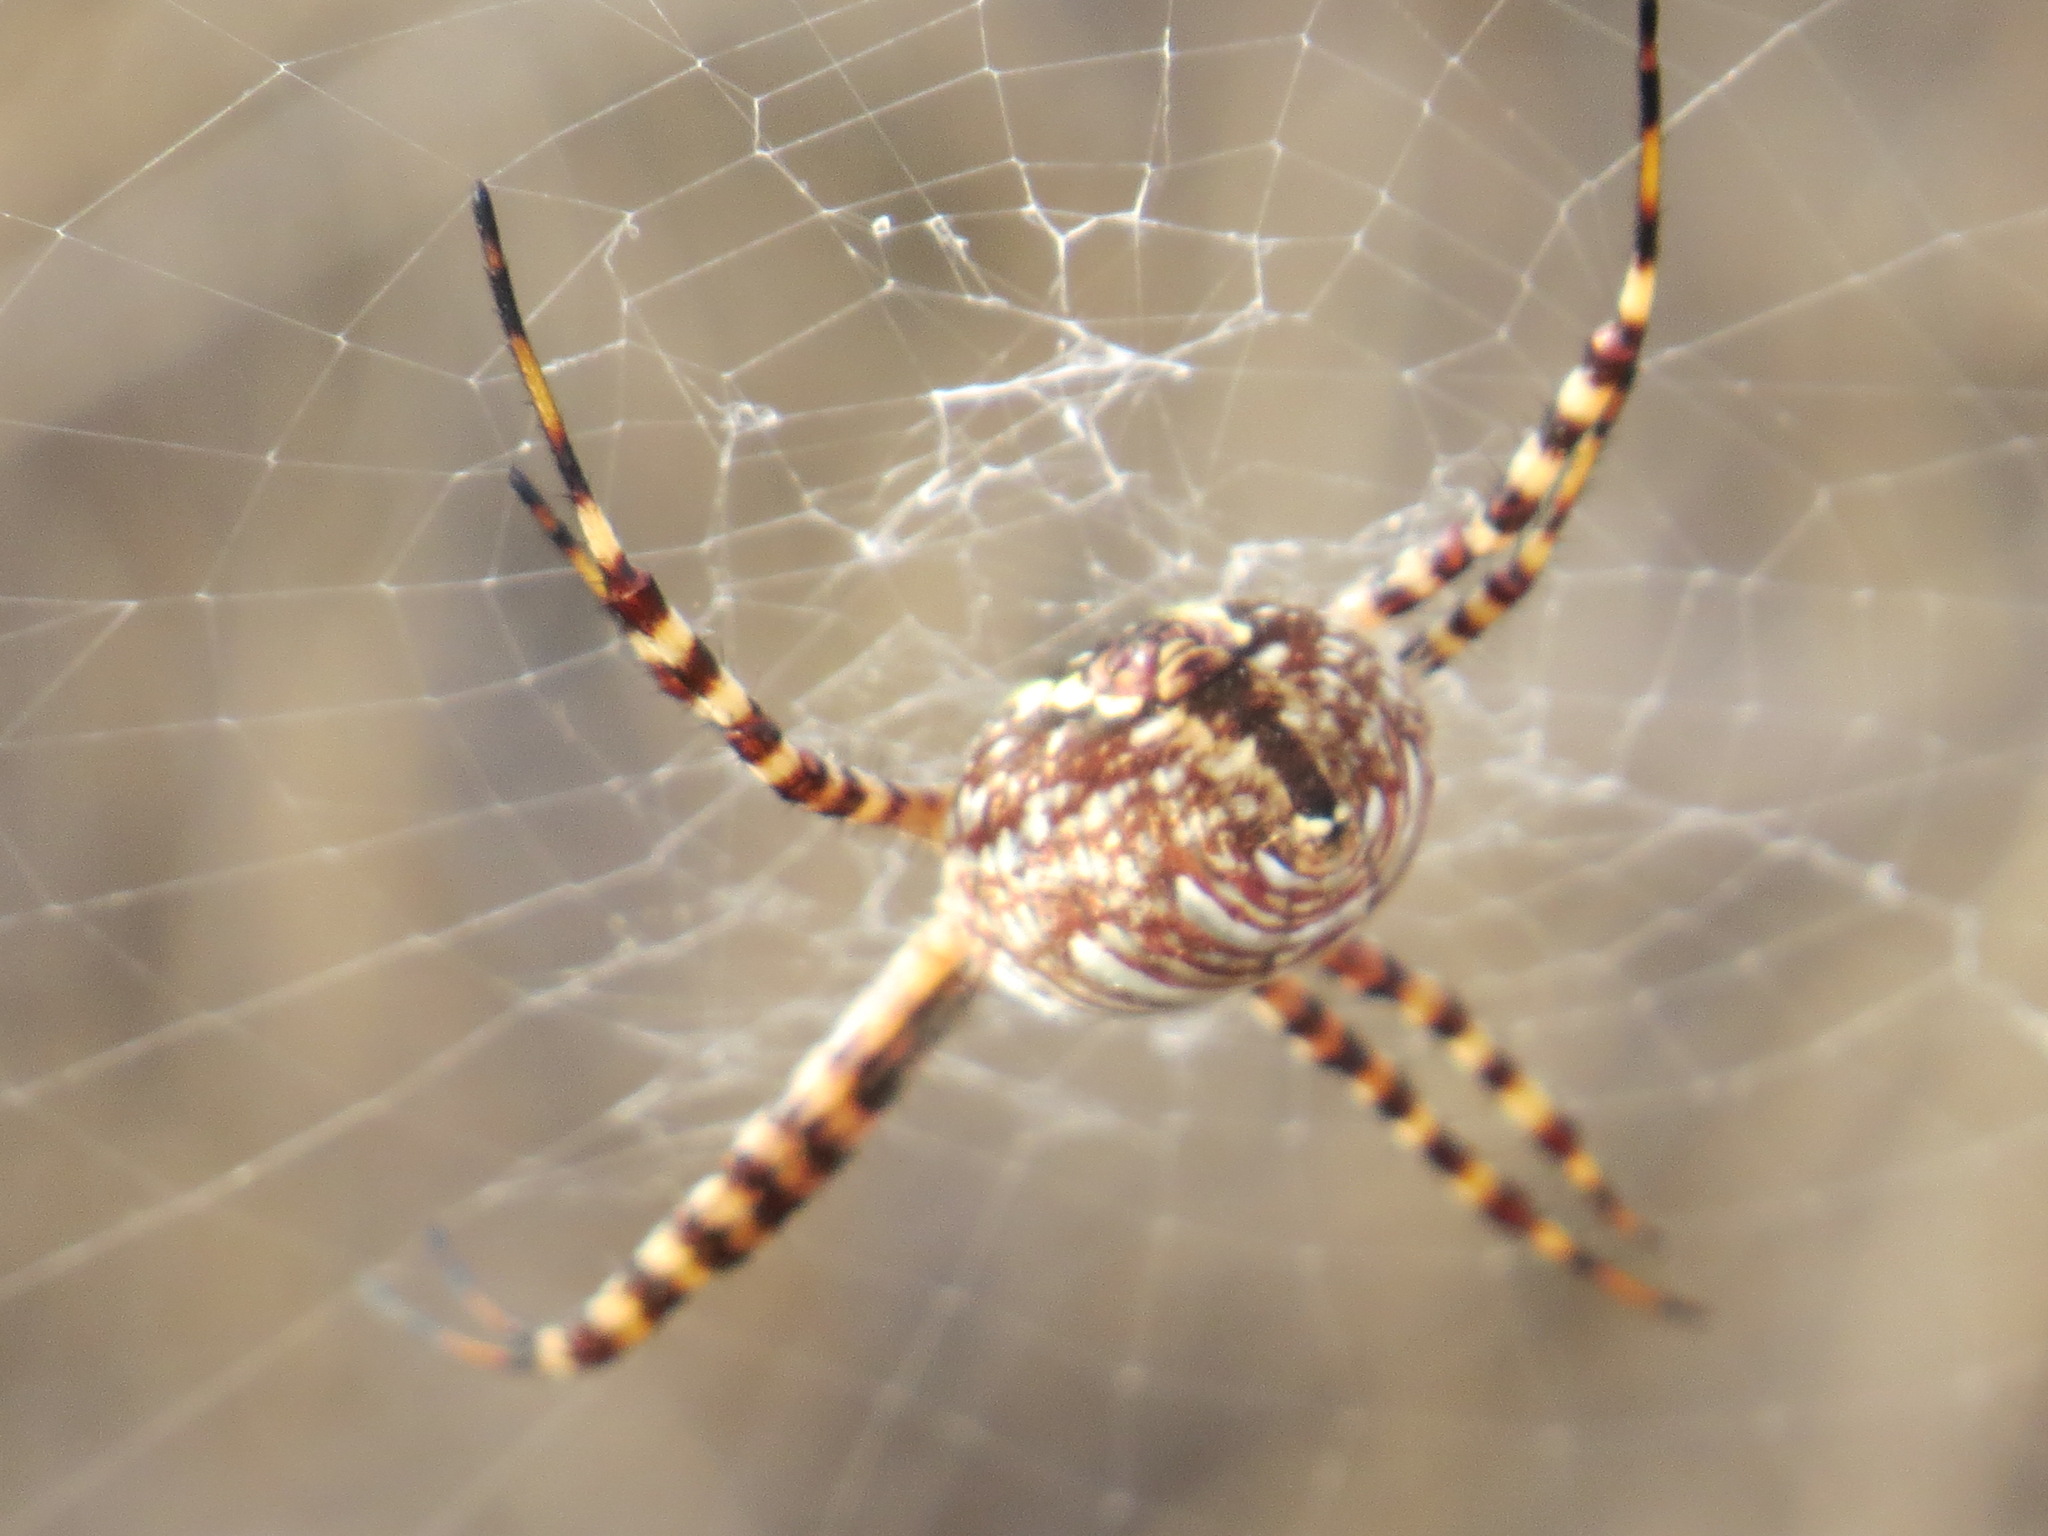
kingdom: Animalia
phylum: Arthropoda
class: Arachnida
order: Araneae
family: Araneidae
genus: Argiope
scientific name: Argiope trifasciata
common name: Banded garden spider
